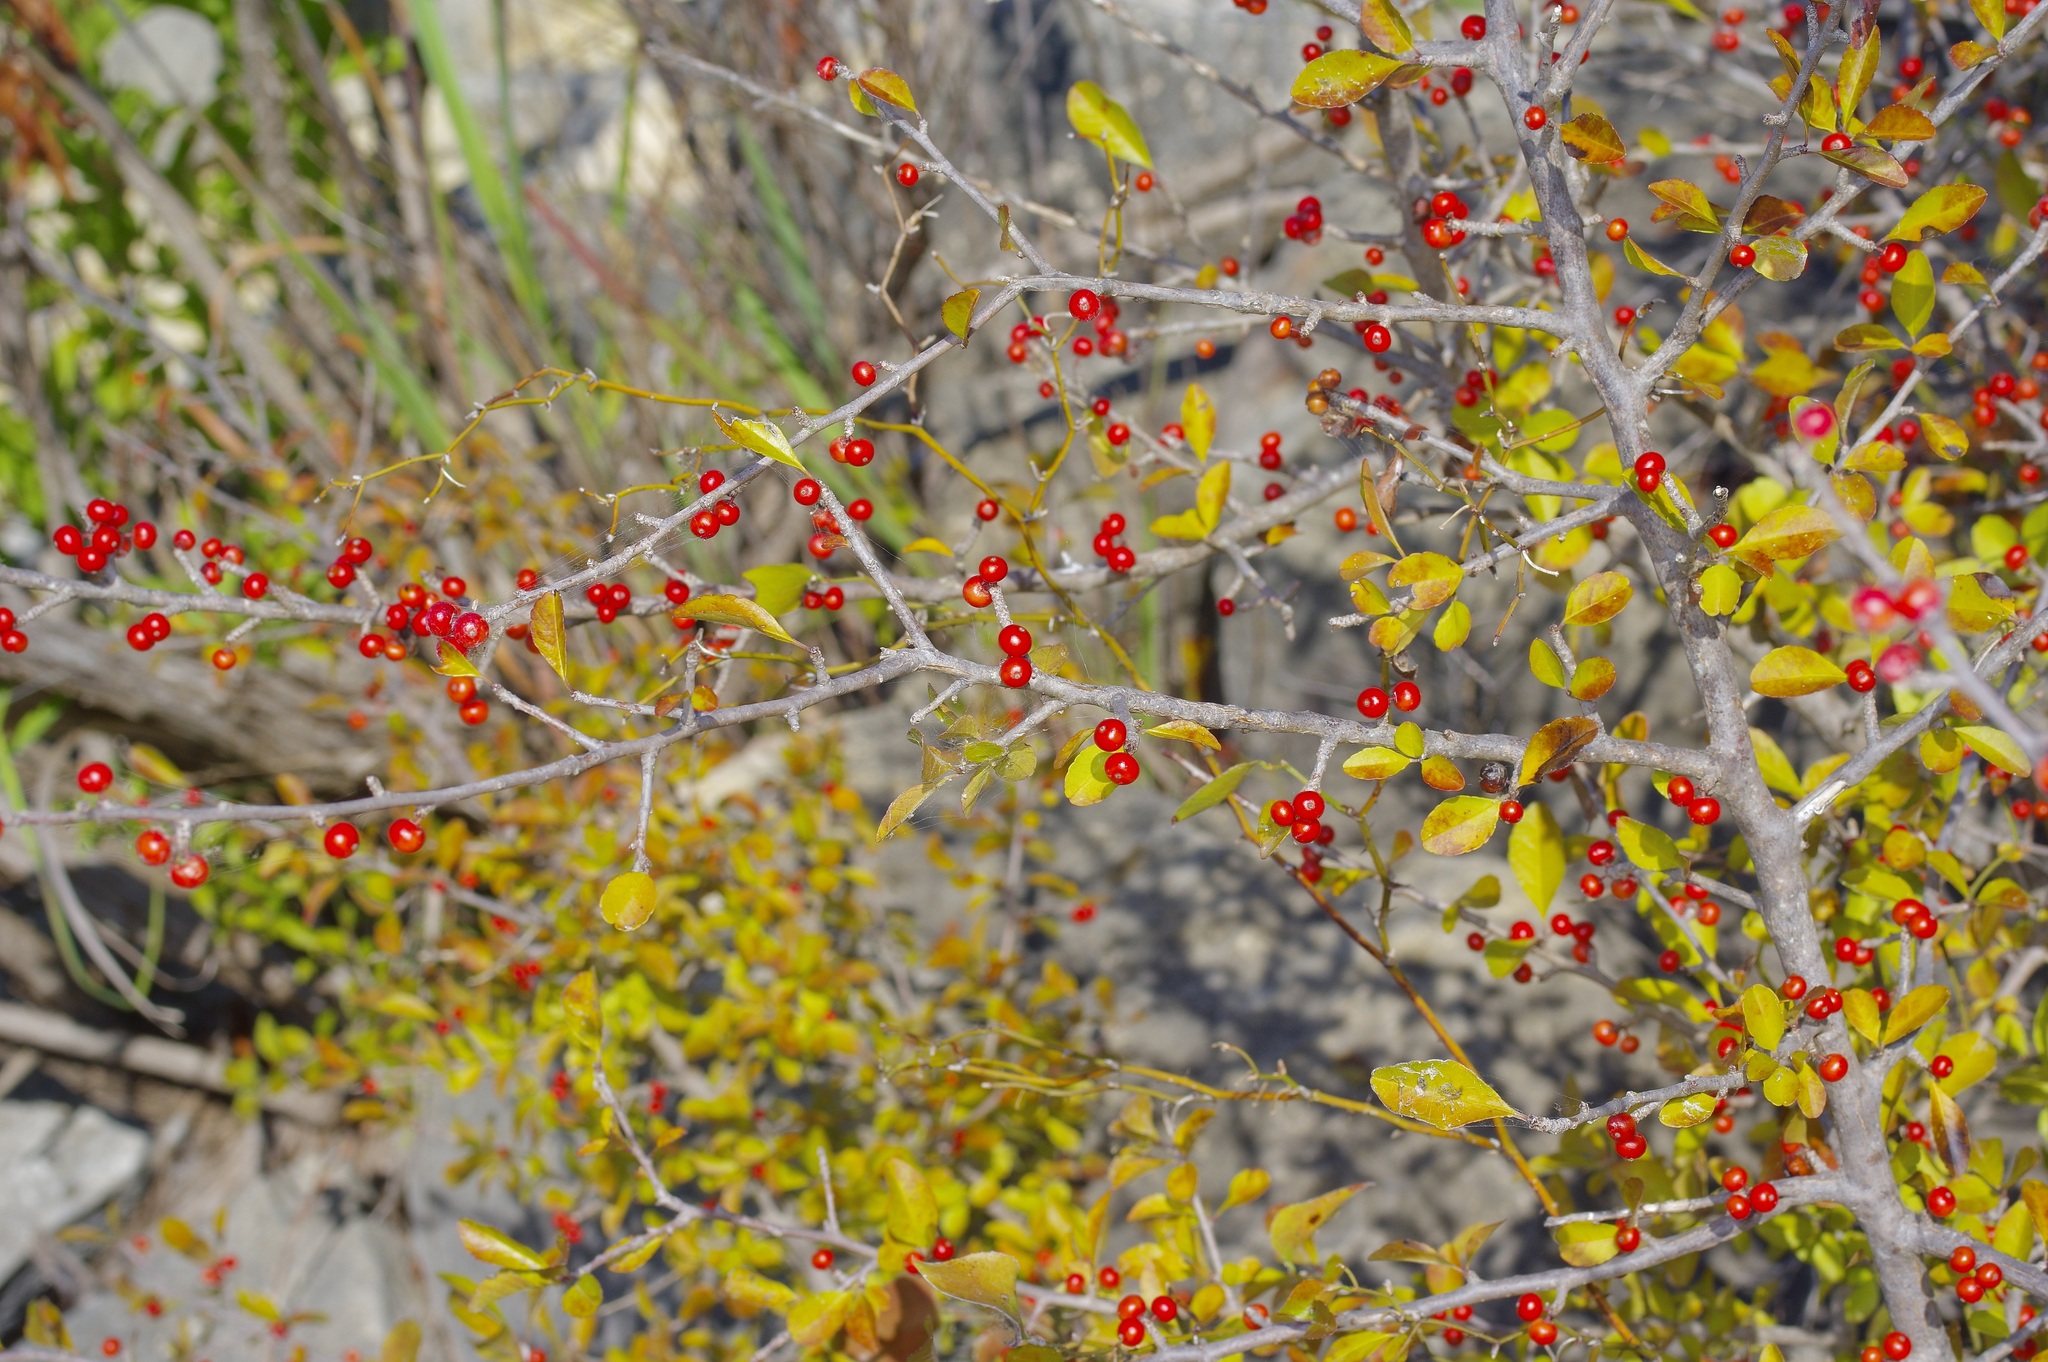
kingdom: Plantae
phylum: Tracheophyta
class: Magnoliopsida
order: Aquifoliales
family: Aquifoliaceae
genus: Ilex
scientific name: Ilex decidua
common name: Possum-haw
